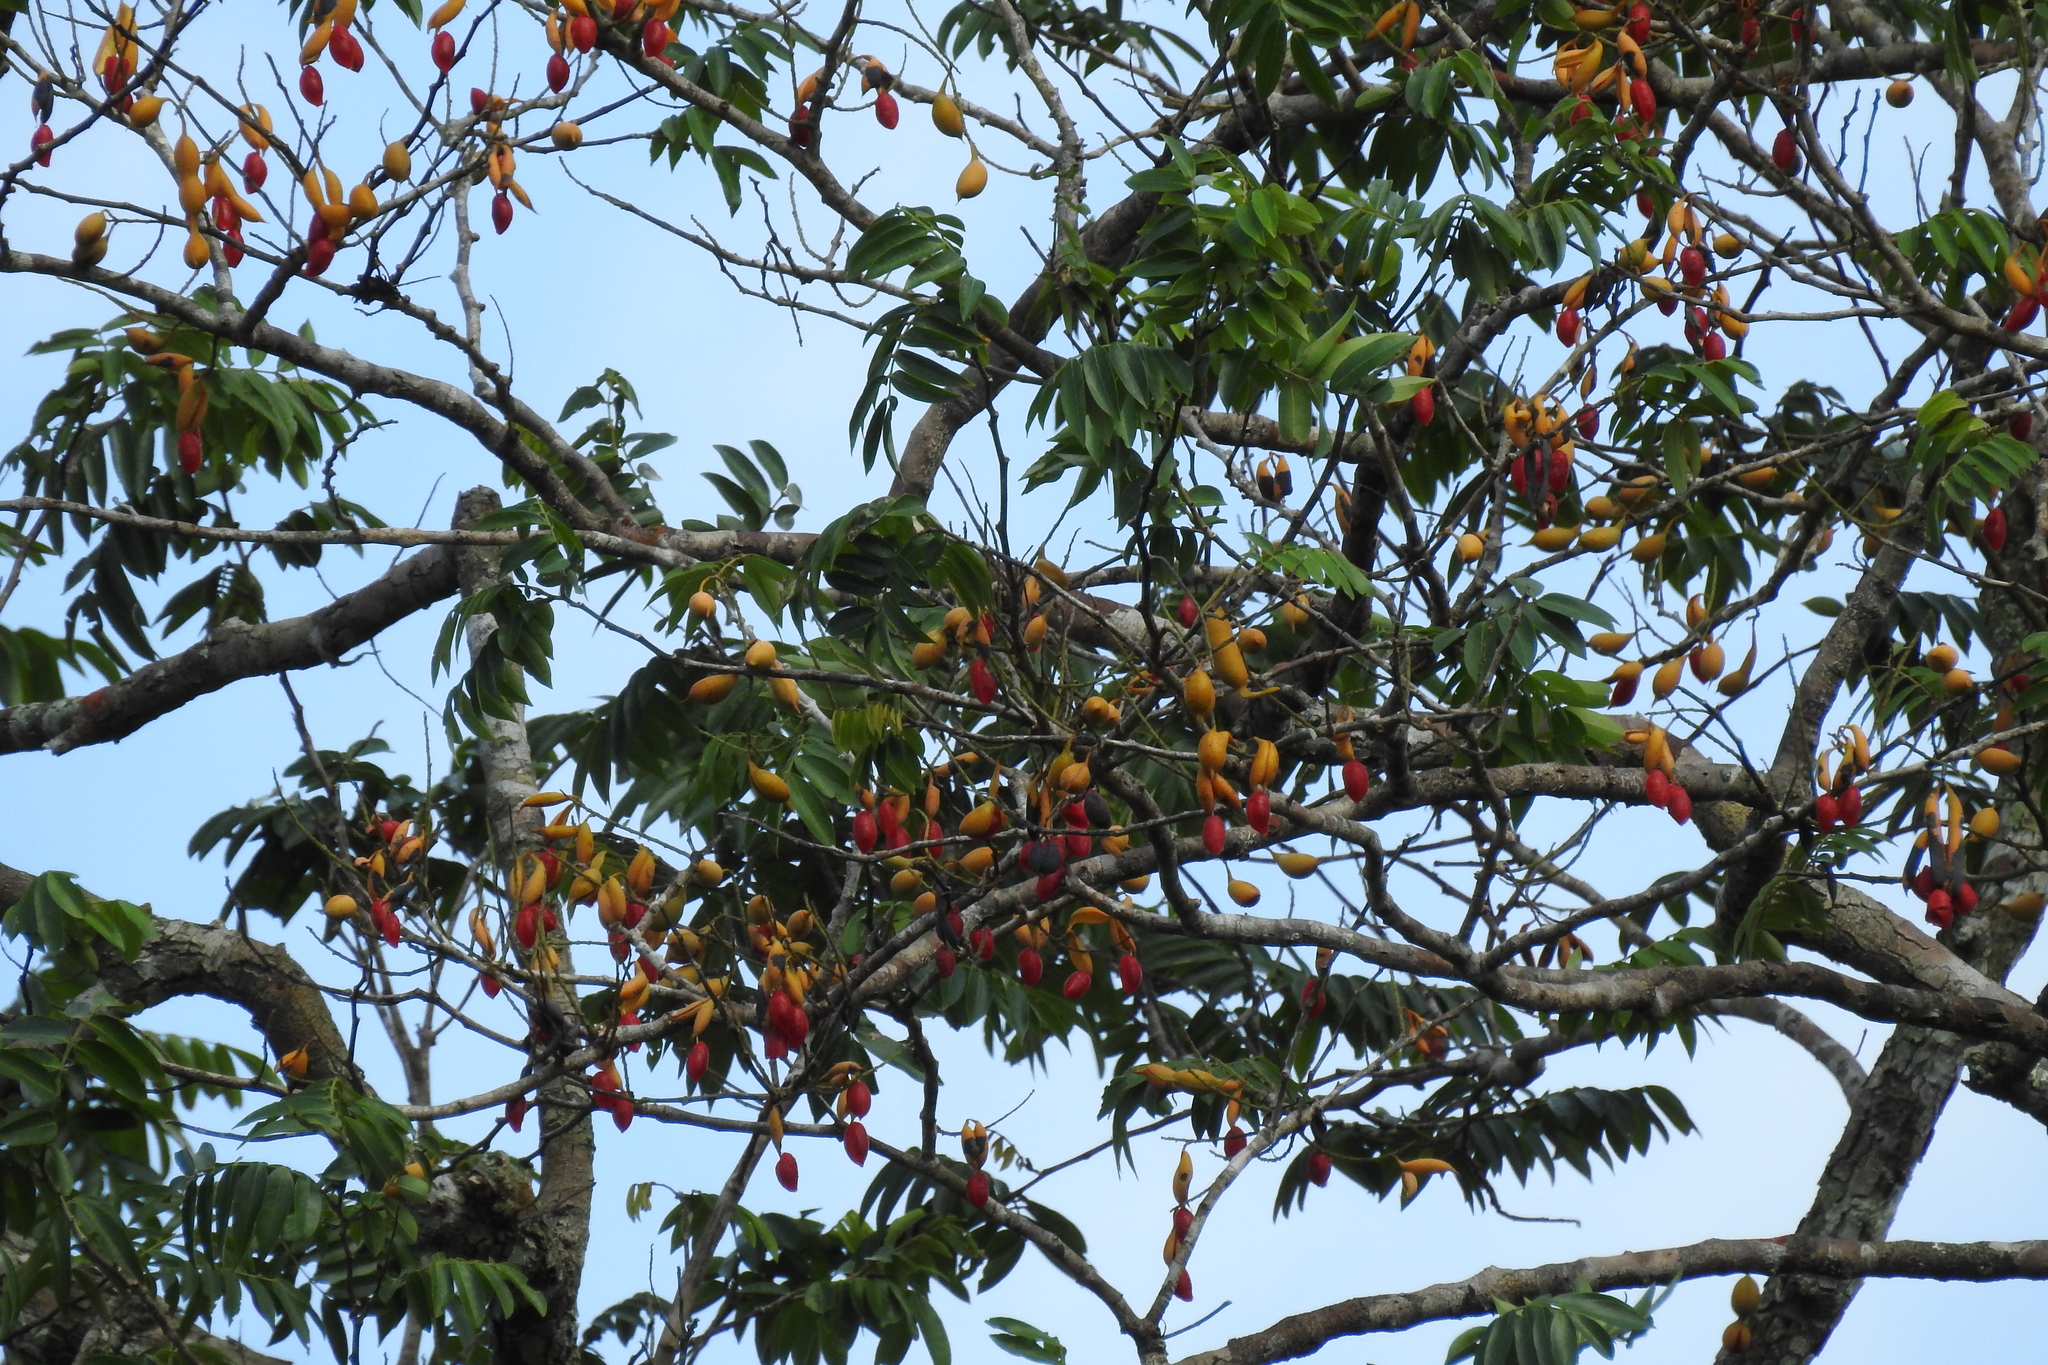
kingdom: Plantae
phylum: Tracheophyta
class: Magnoliopsida
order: Fabales
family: Fabaceae
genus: Swartzia
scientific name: Swartzia cubensis
